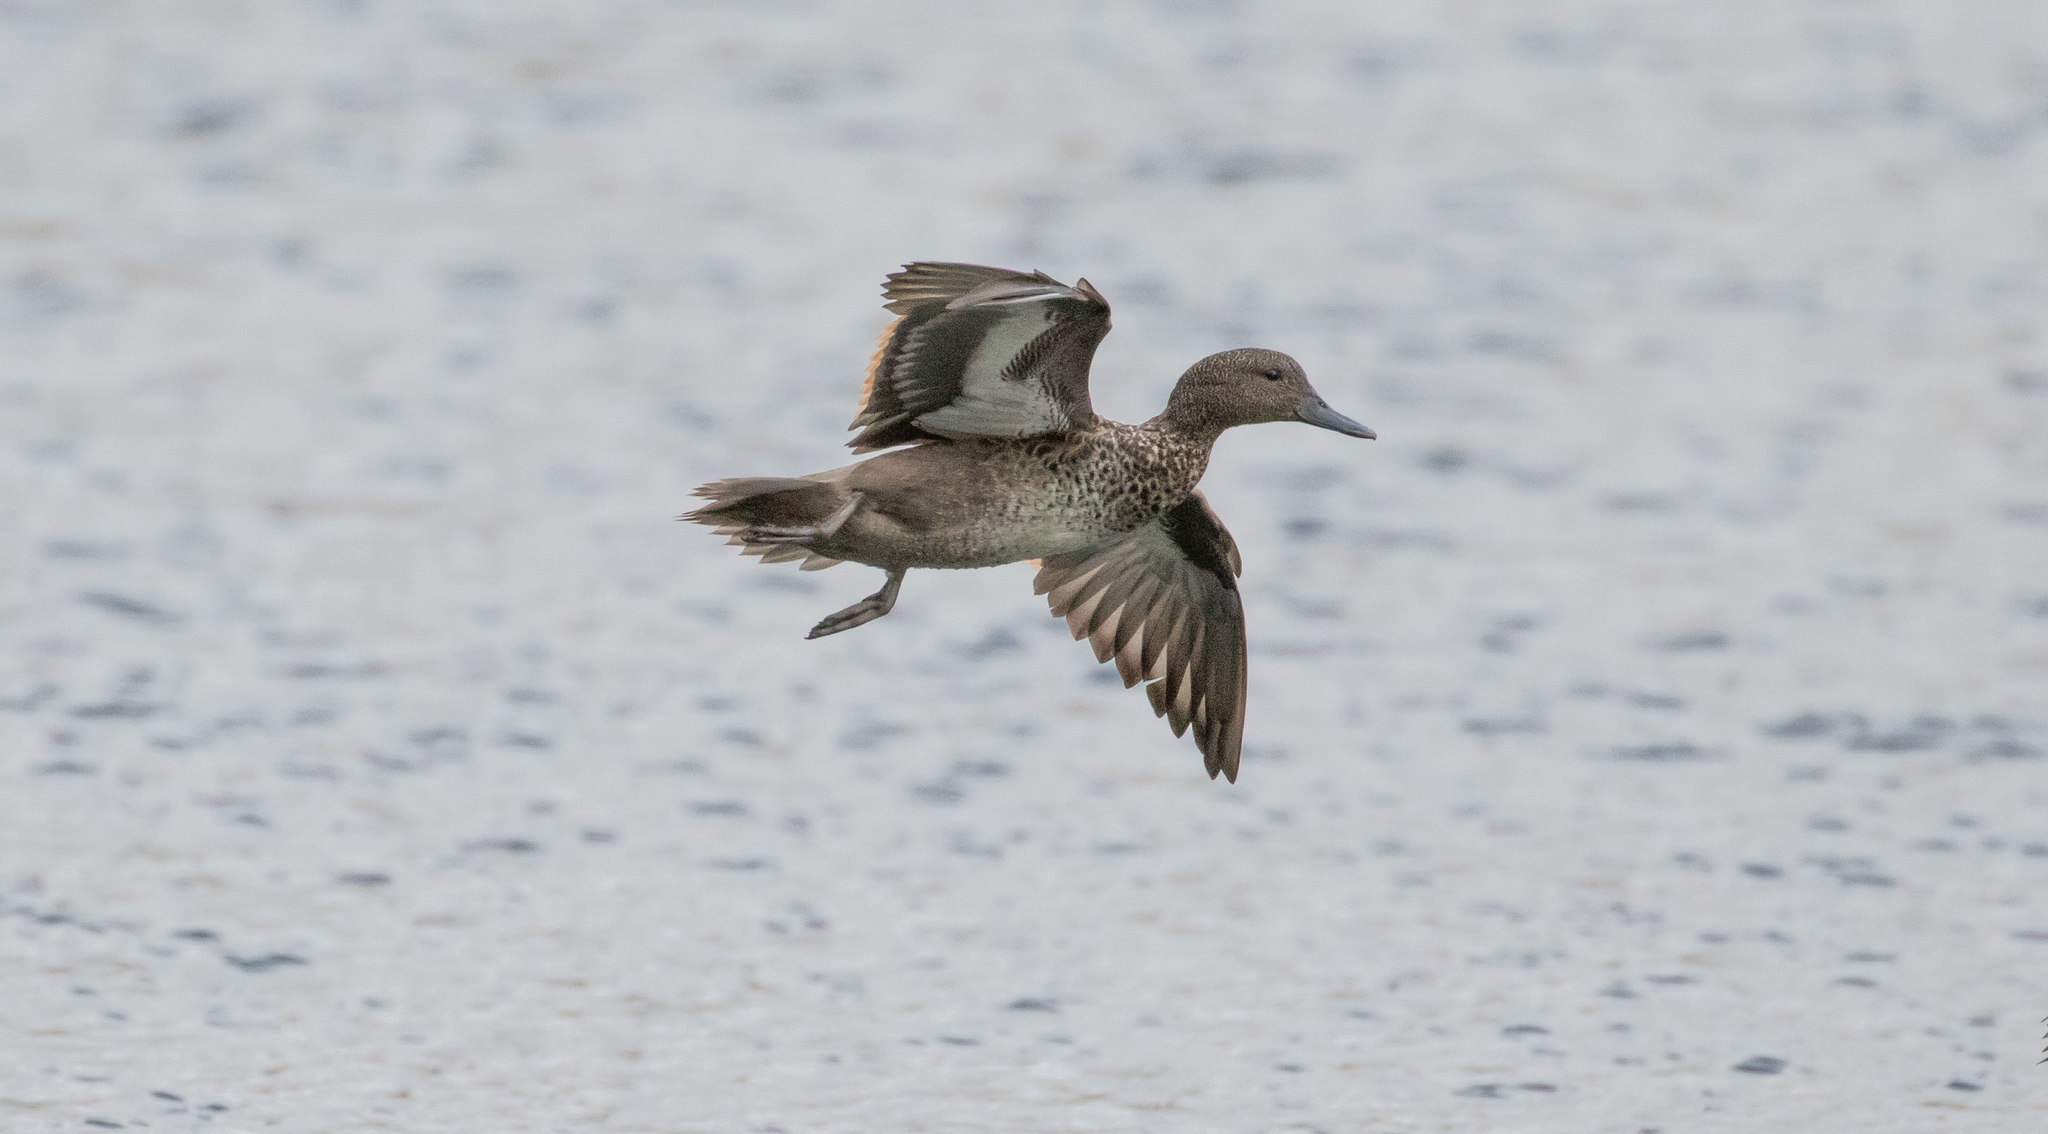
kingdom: Animalia
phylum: Chordata
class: Aves
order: Anseriformes
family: Anatidae
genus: Anas
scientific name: Anas andium
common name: Andean teal
